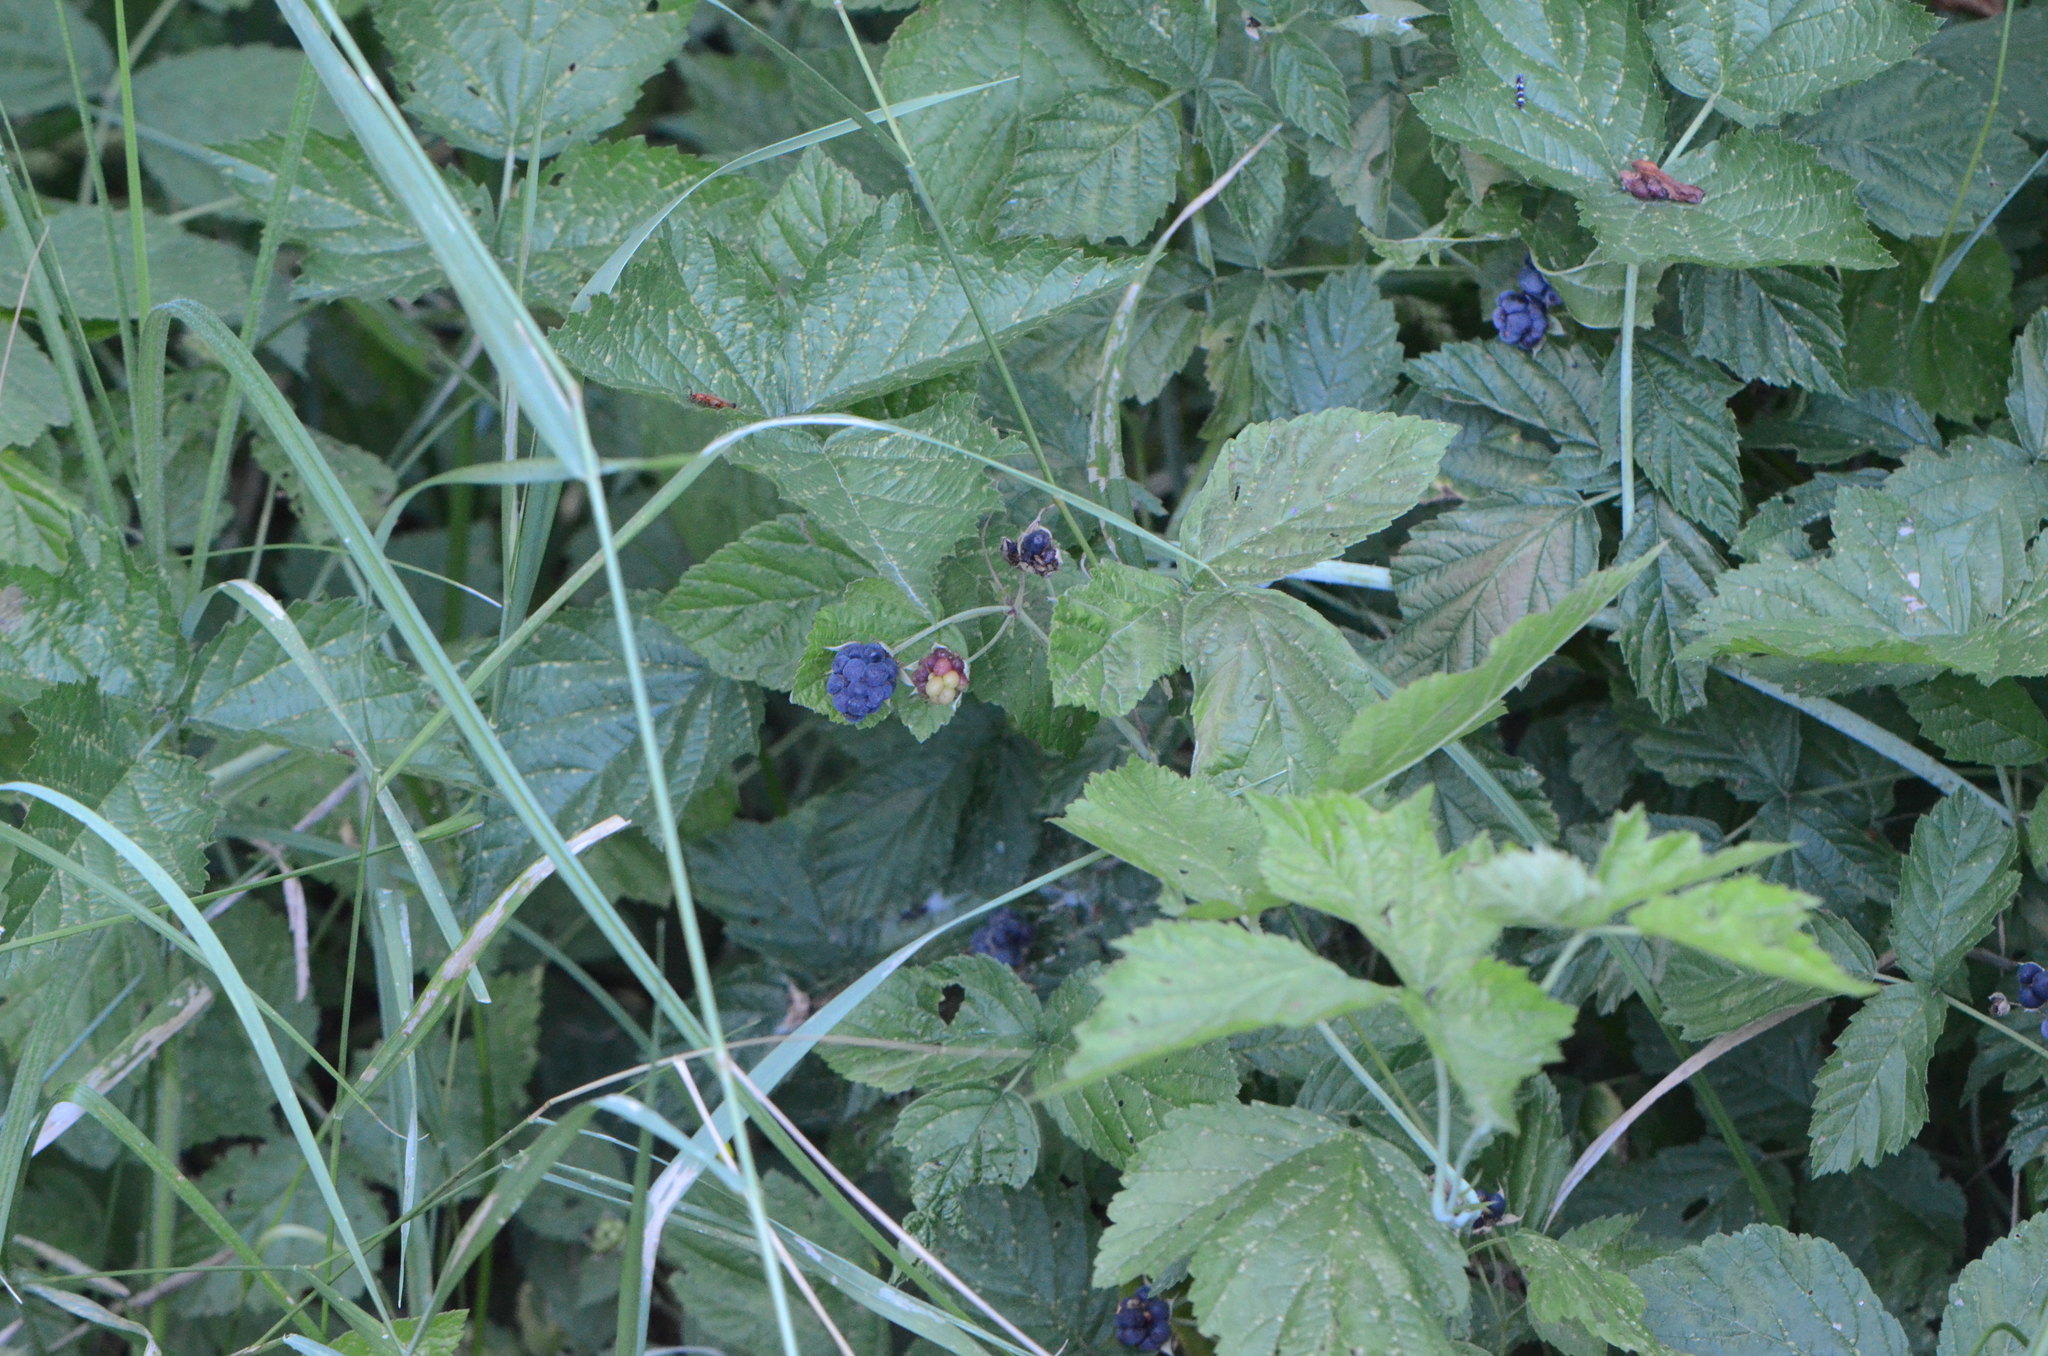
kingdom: Plantae
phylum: Tracheophyta
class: Magnoliopsida
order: Rosales
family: Rosaceae
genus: Rubus
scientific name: Rubus caesius
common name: Dewberry
